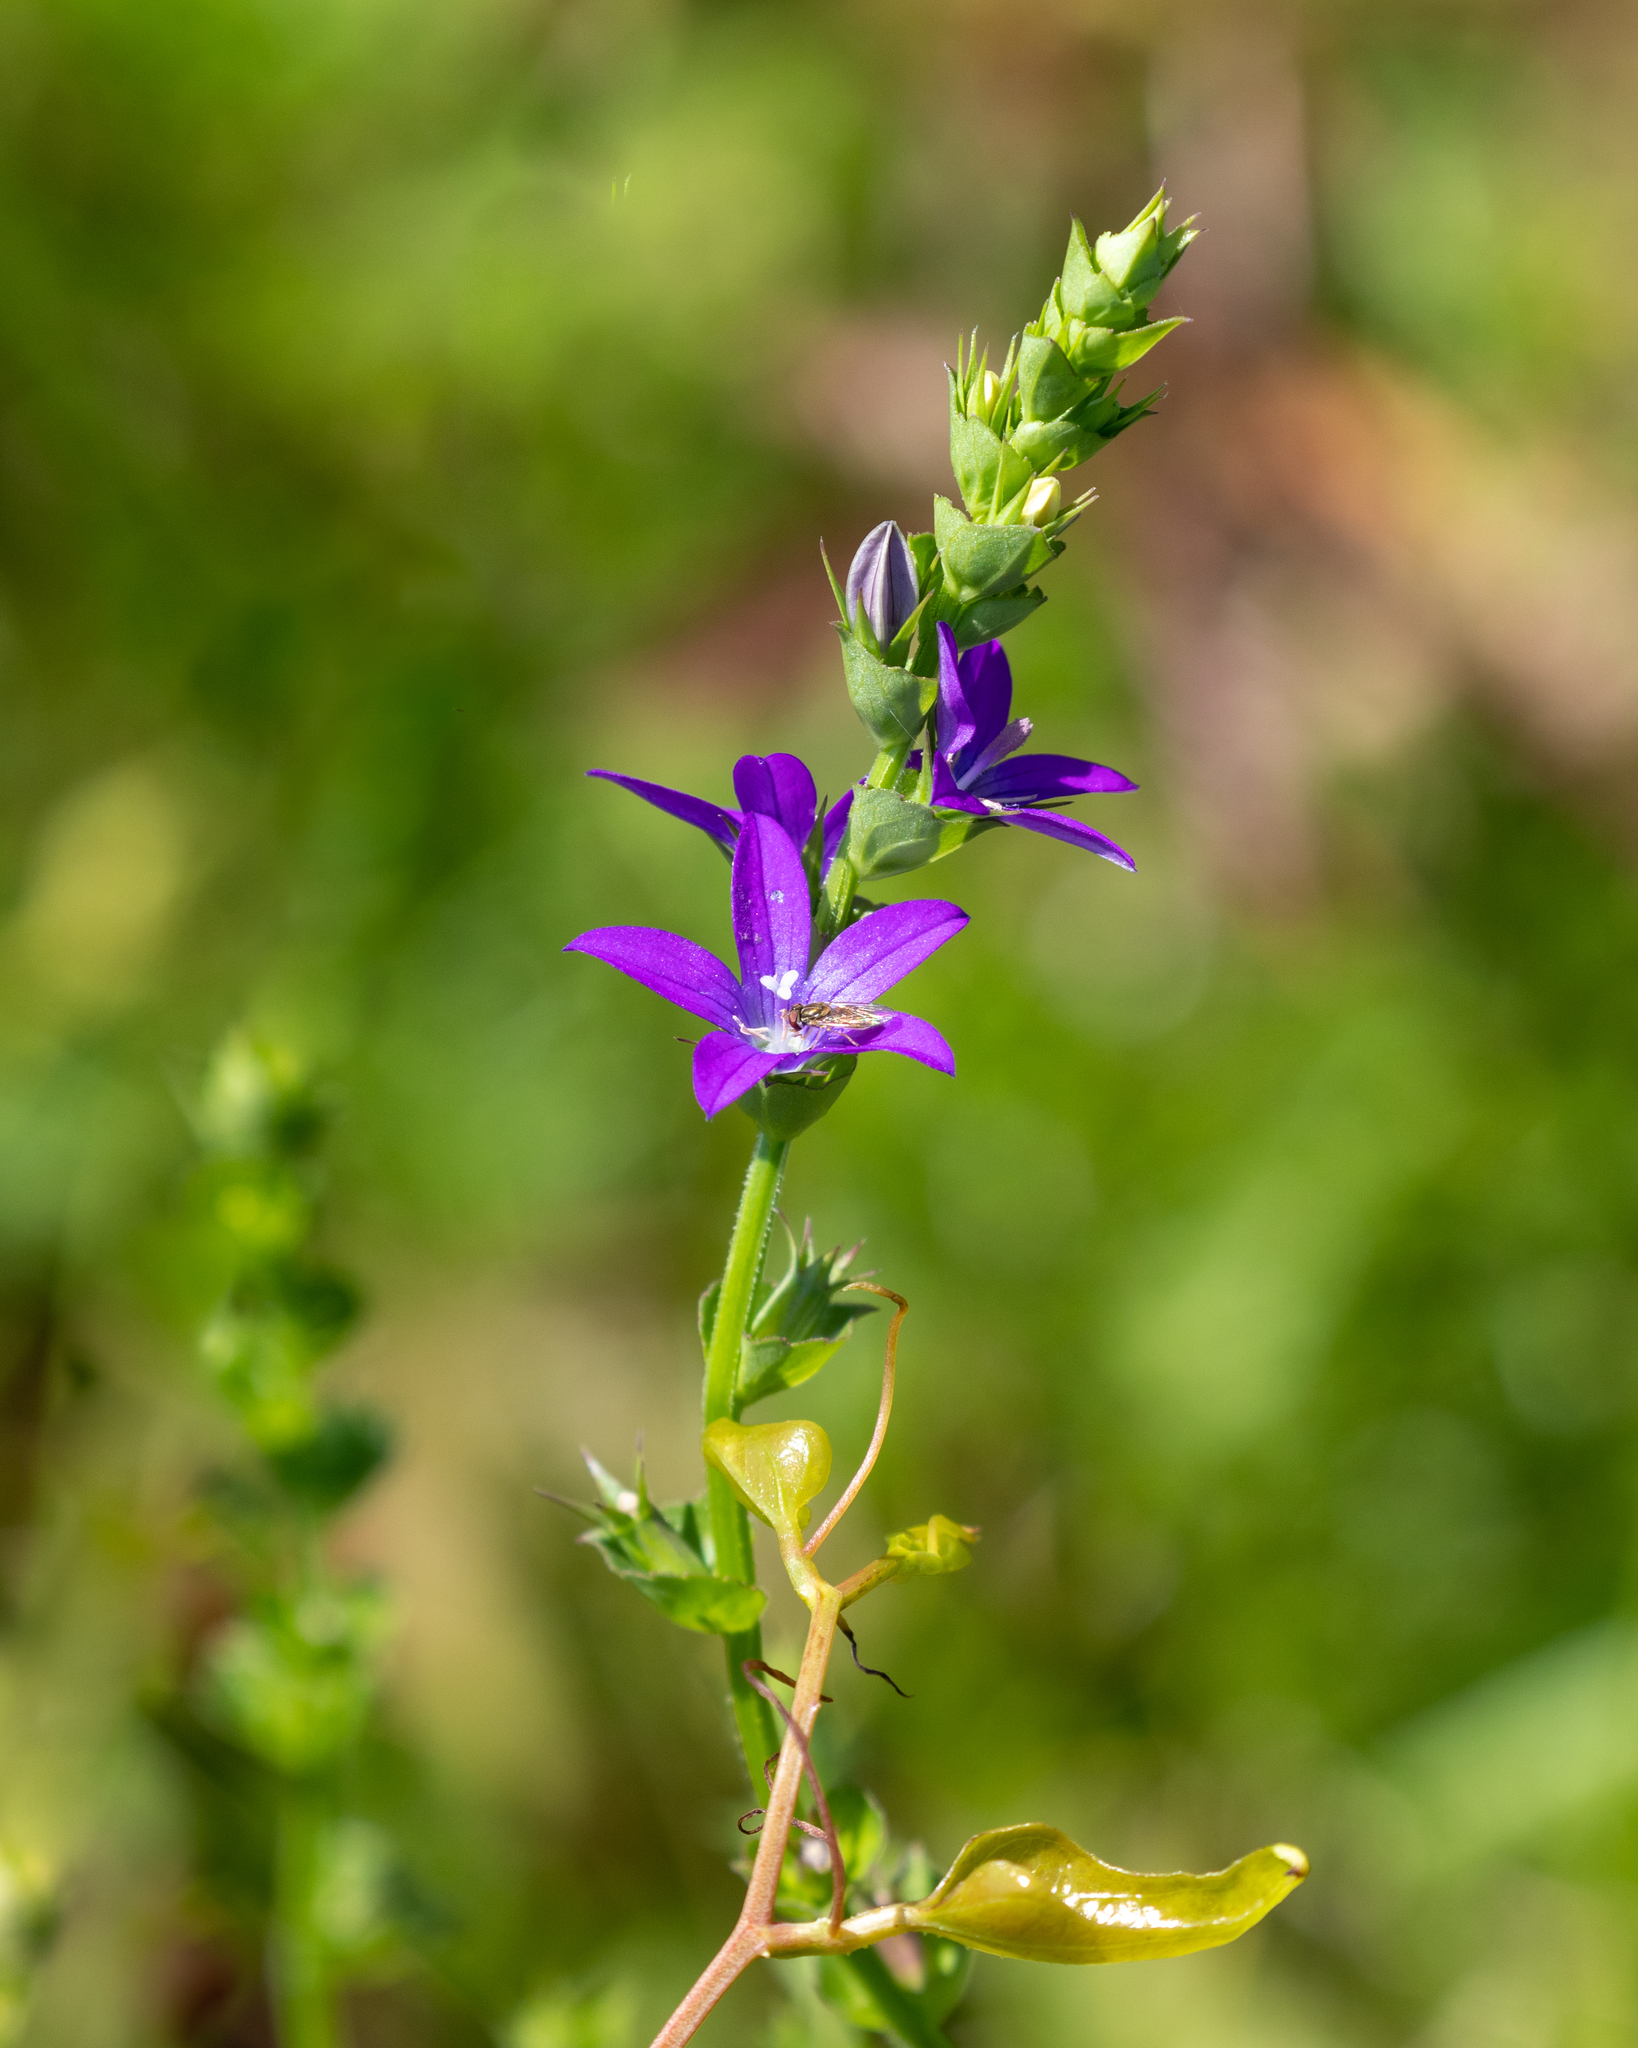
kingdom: Plantae
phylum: Tracheophyta
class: Magnoliopsida
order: Asterales
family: Campanulaceae
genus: Triodanis
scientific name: Triodanis perfoliata
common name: Clasping venus' looking-glass
